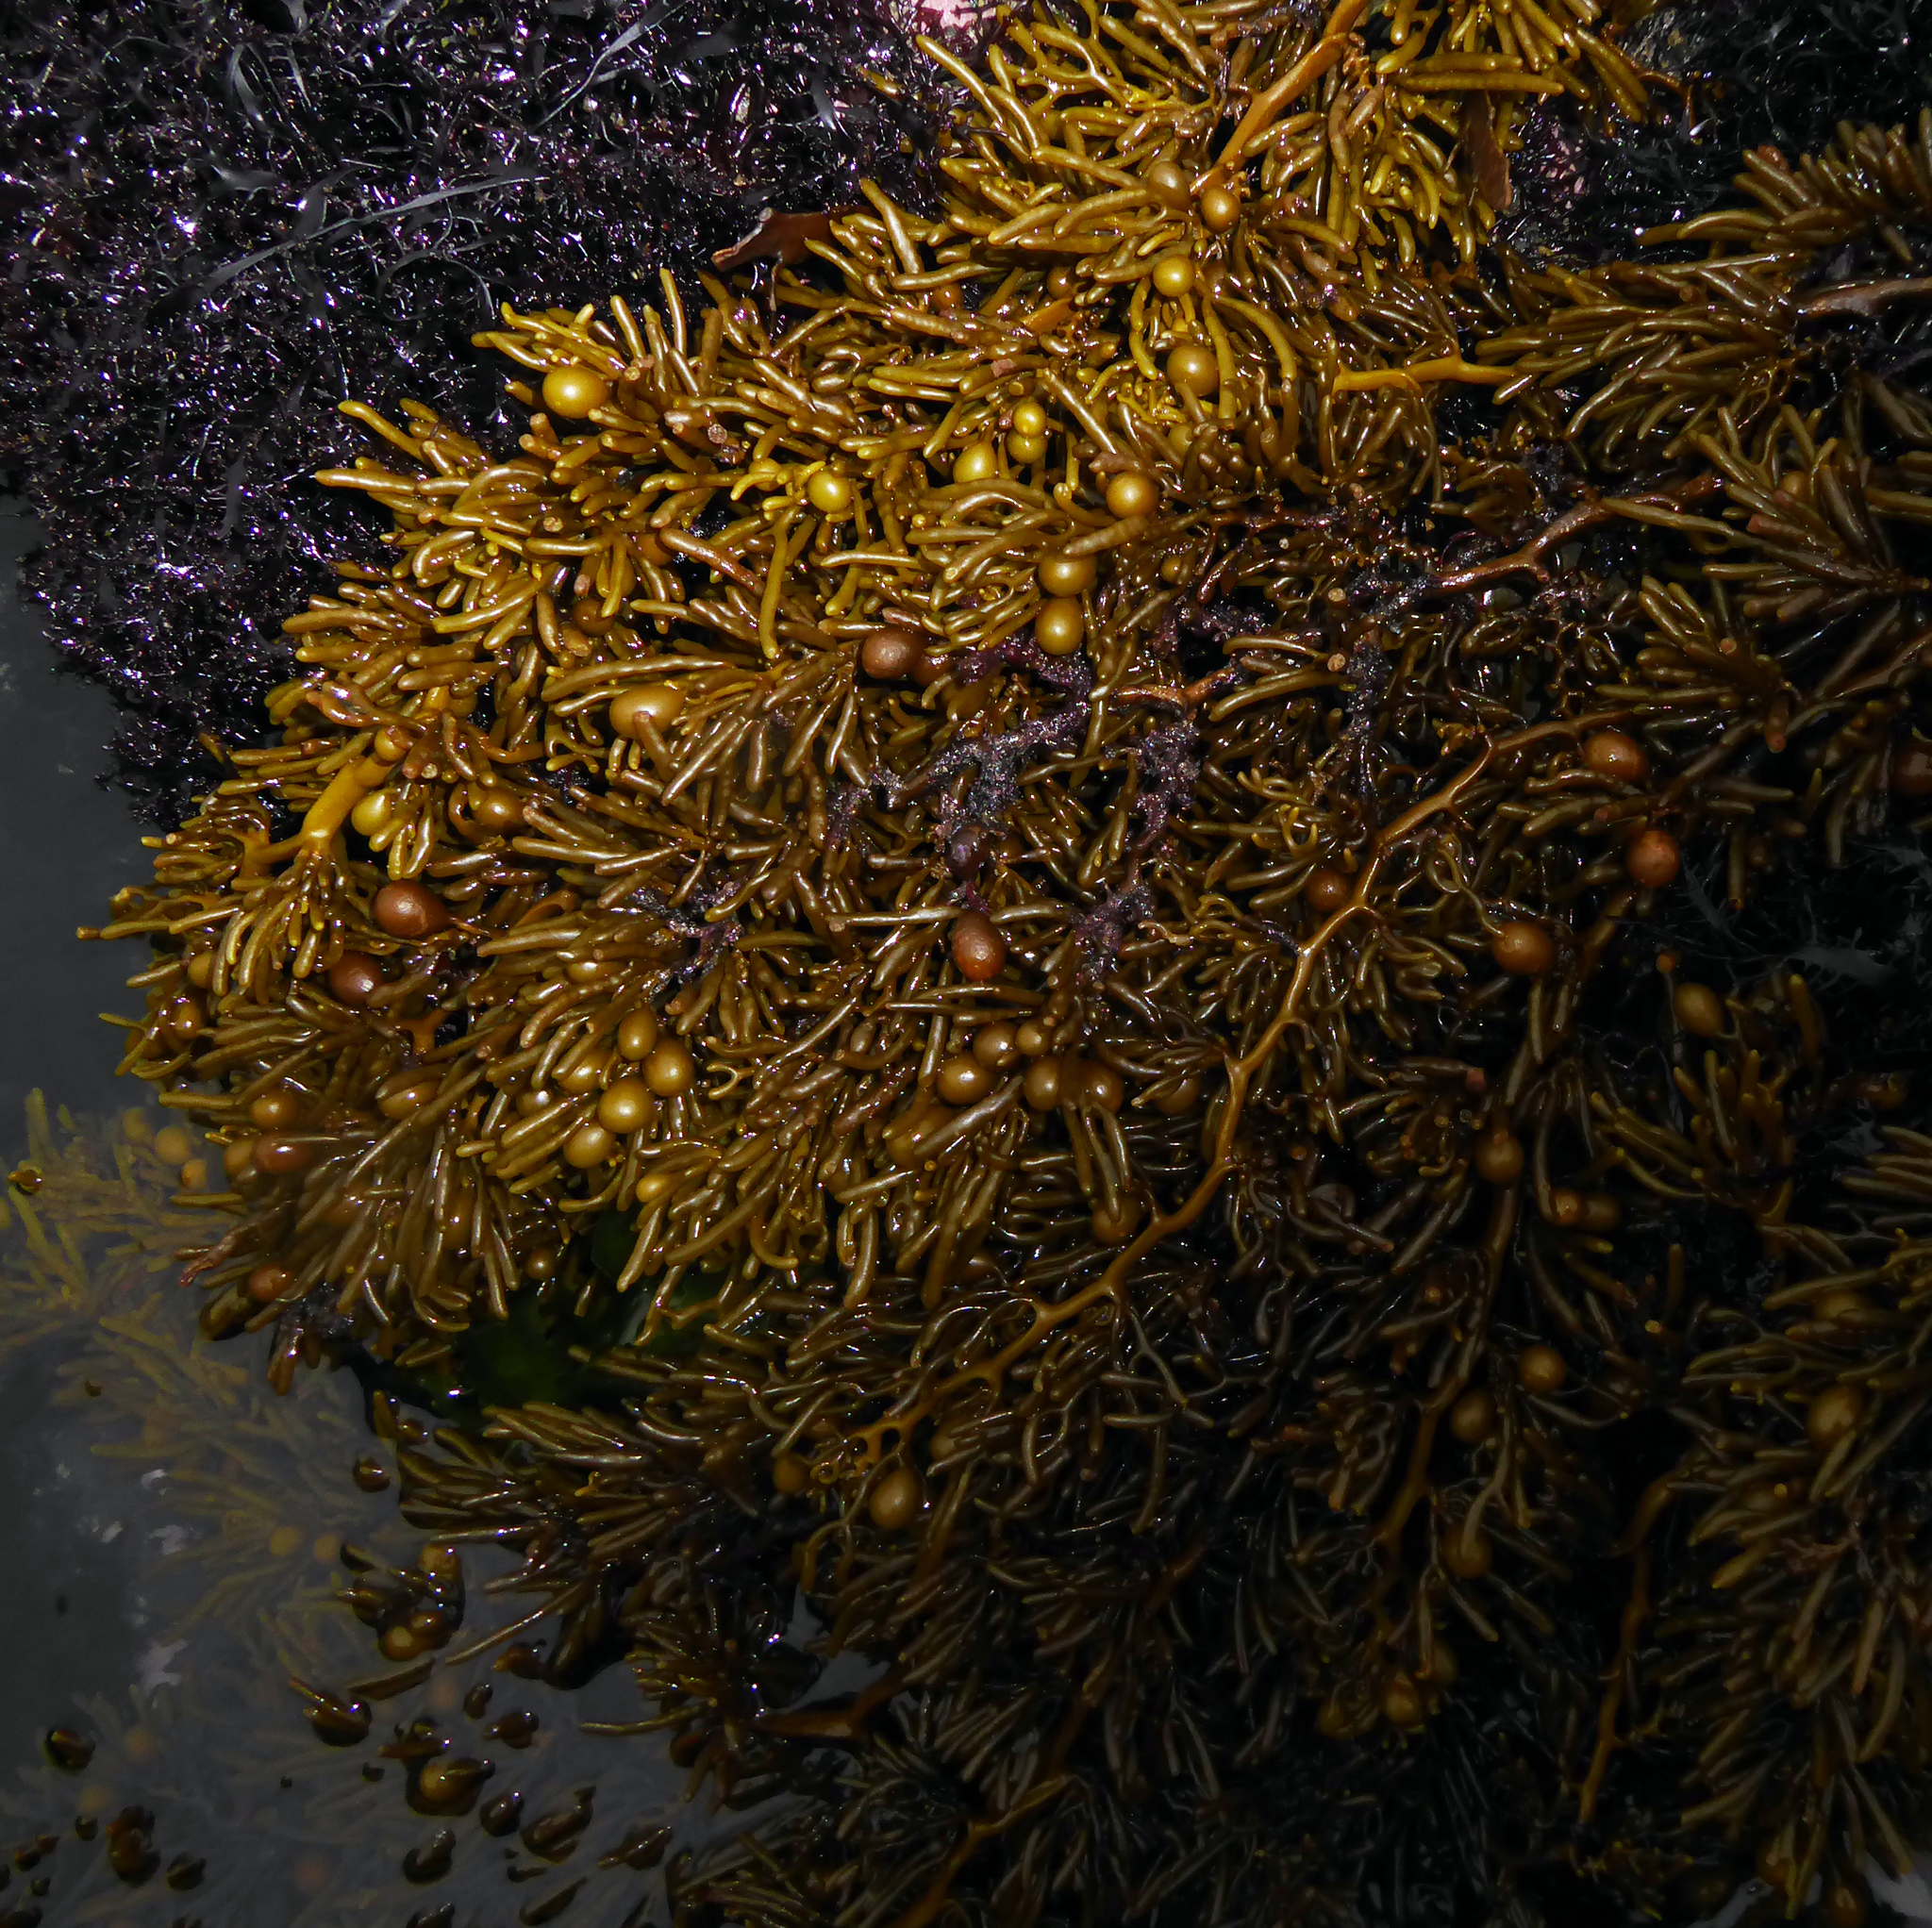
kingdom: Chromista
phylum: Ochrophyta
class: Phaeophyceae
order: Fucales
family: Sargassaceae
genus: Cystophora
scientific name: Cystophora torulosa
